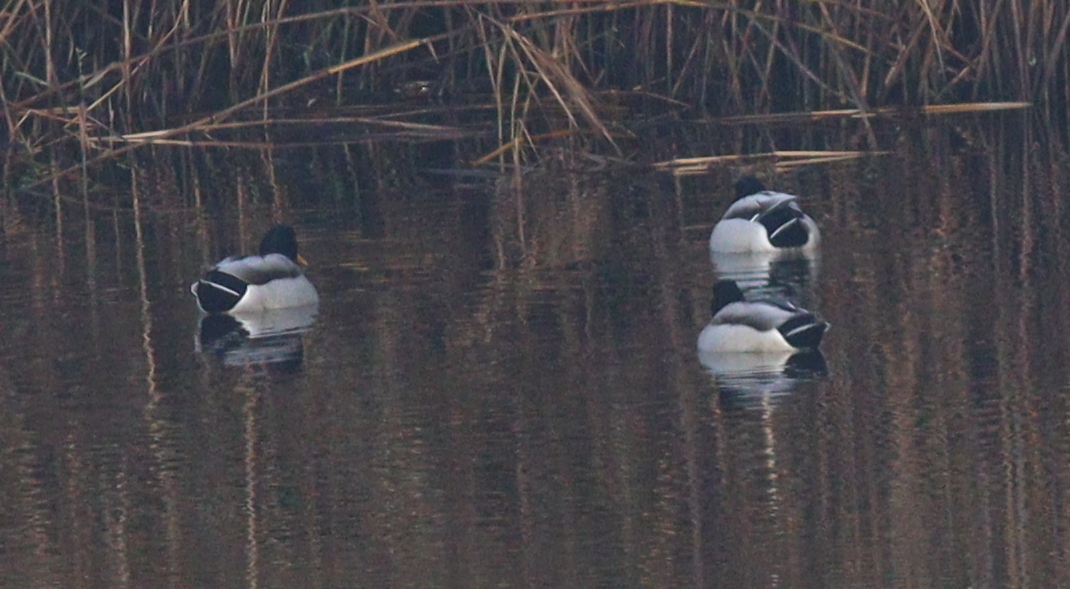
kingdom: Animalia
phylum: Chordata
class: Aves
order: Anseriformes
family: Anatidae
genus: Anas
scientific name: Anas platyrhynchos
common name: Mallard
